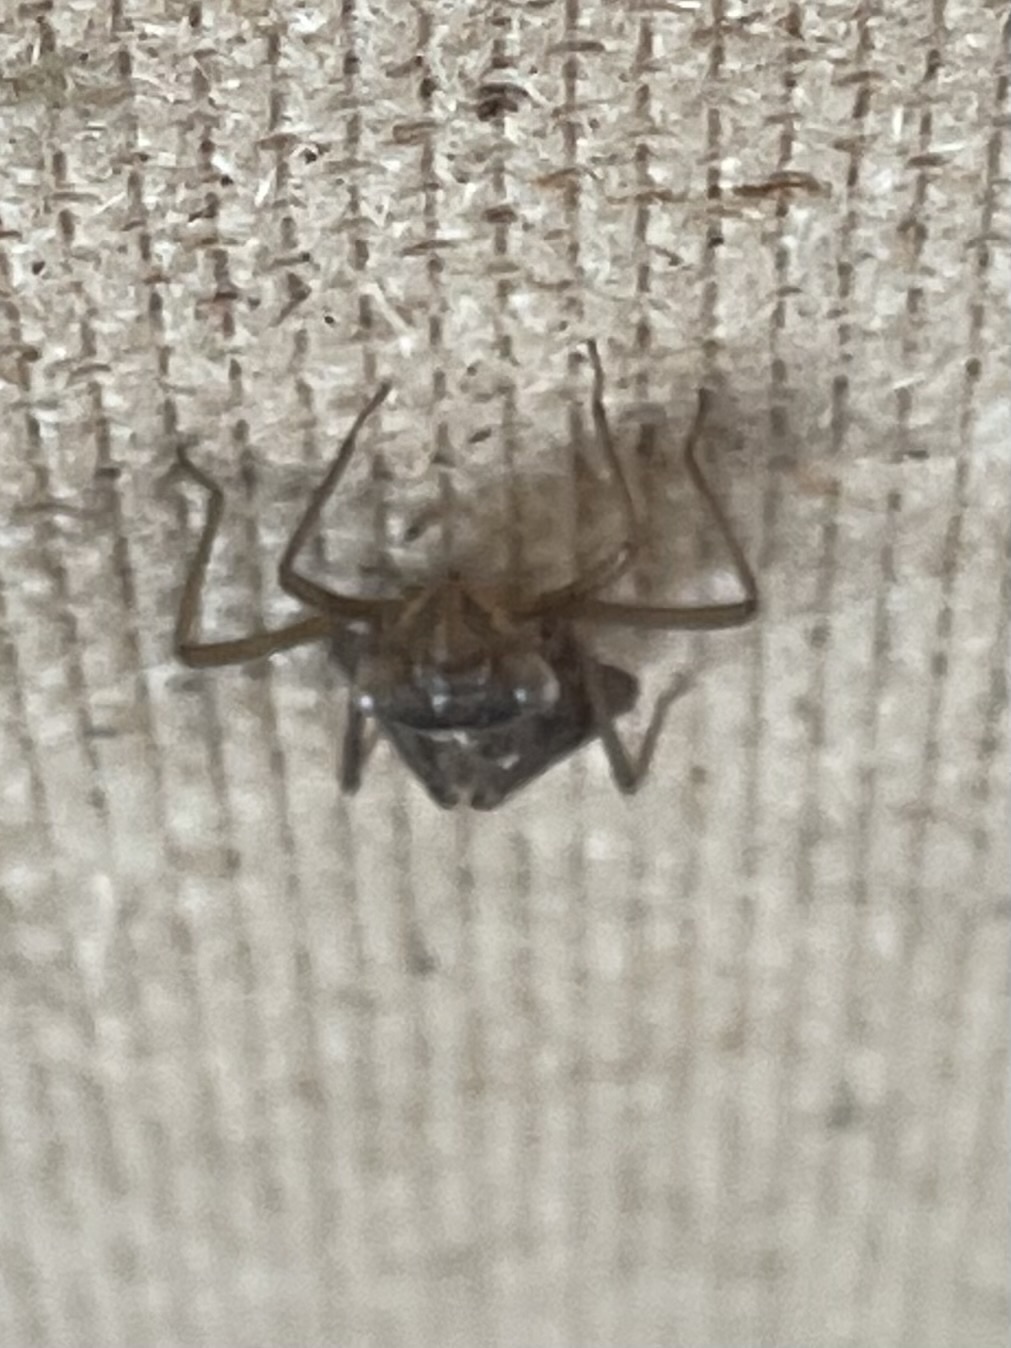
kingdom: Animalia
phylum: Arthropoda
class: Insecta
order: Odonata
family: Corduliidae
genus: Cordulia
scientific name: Cordulia aenea
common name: Downy emerald
